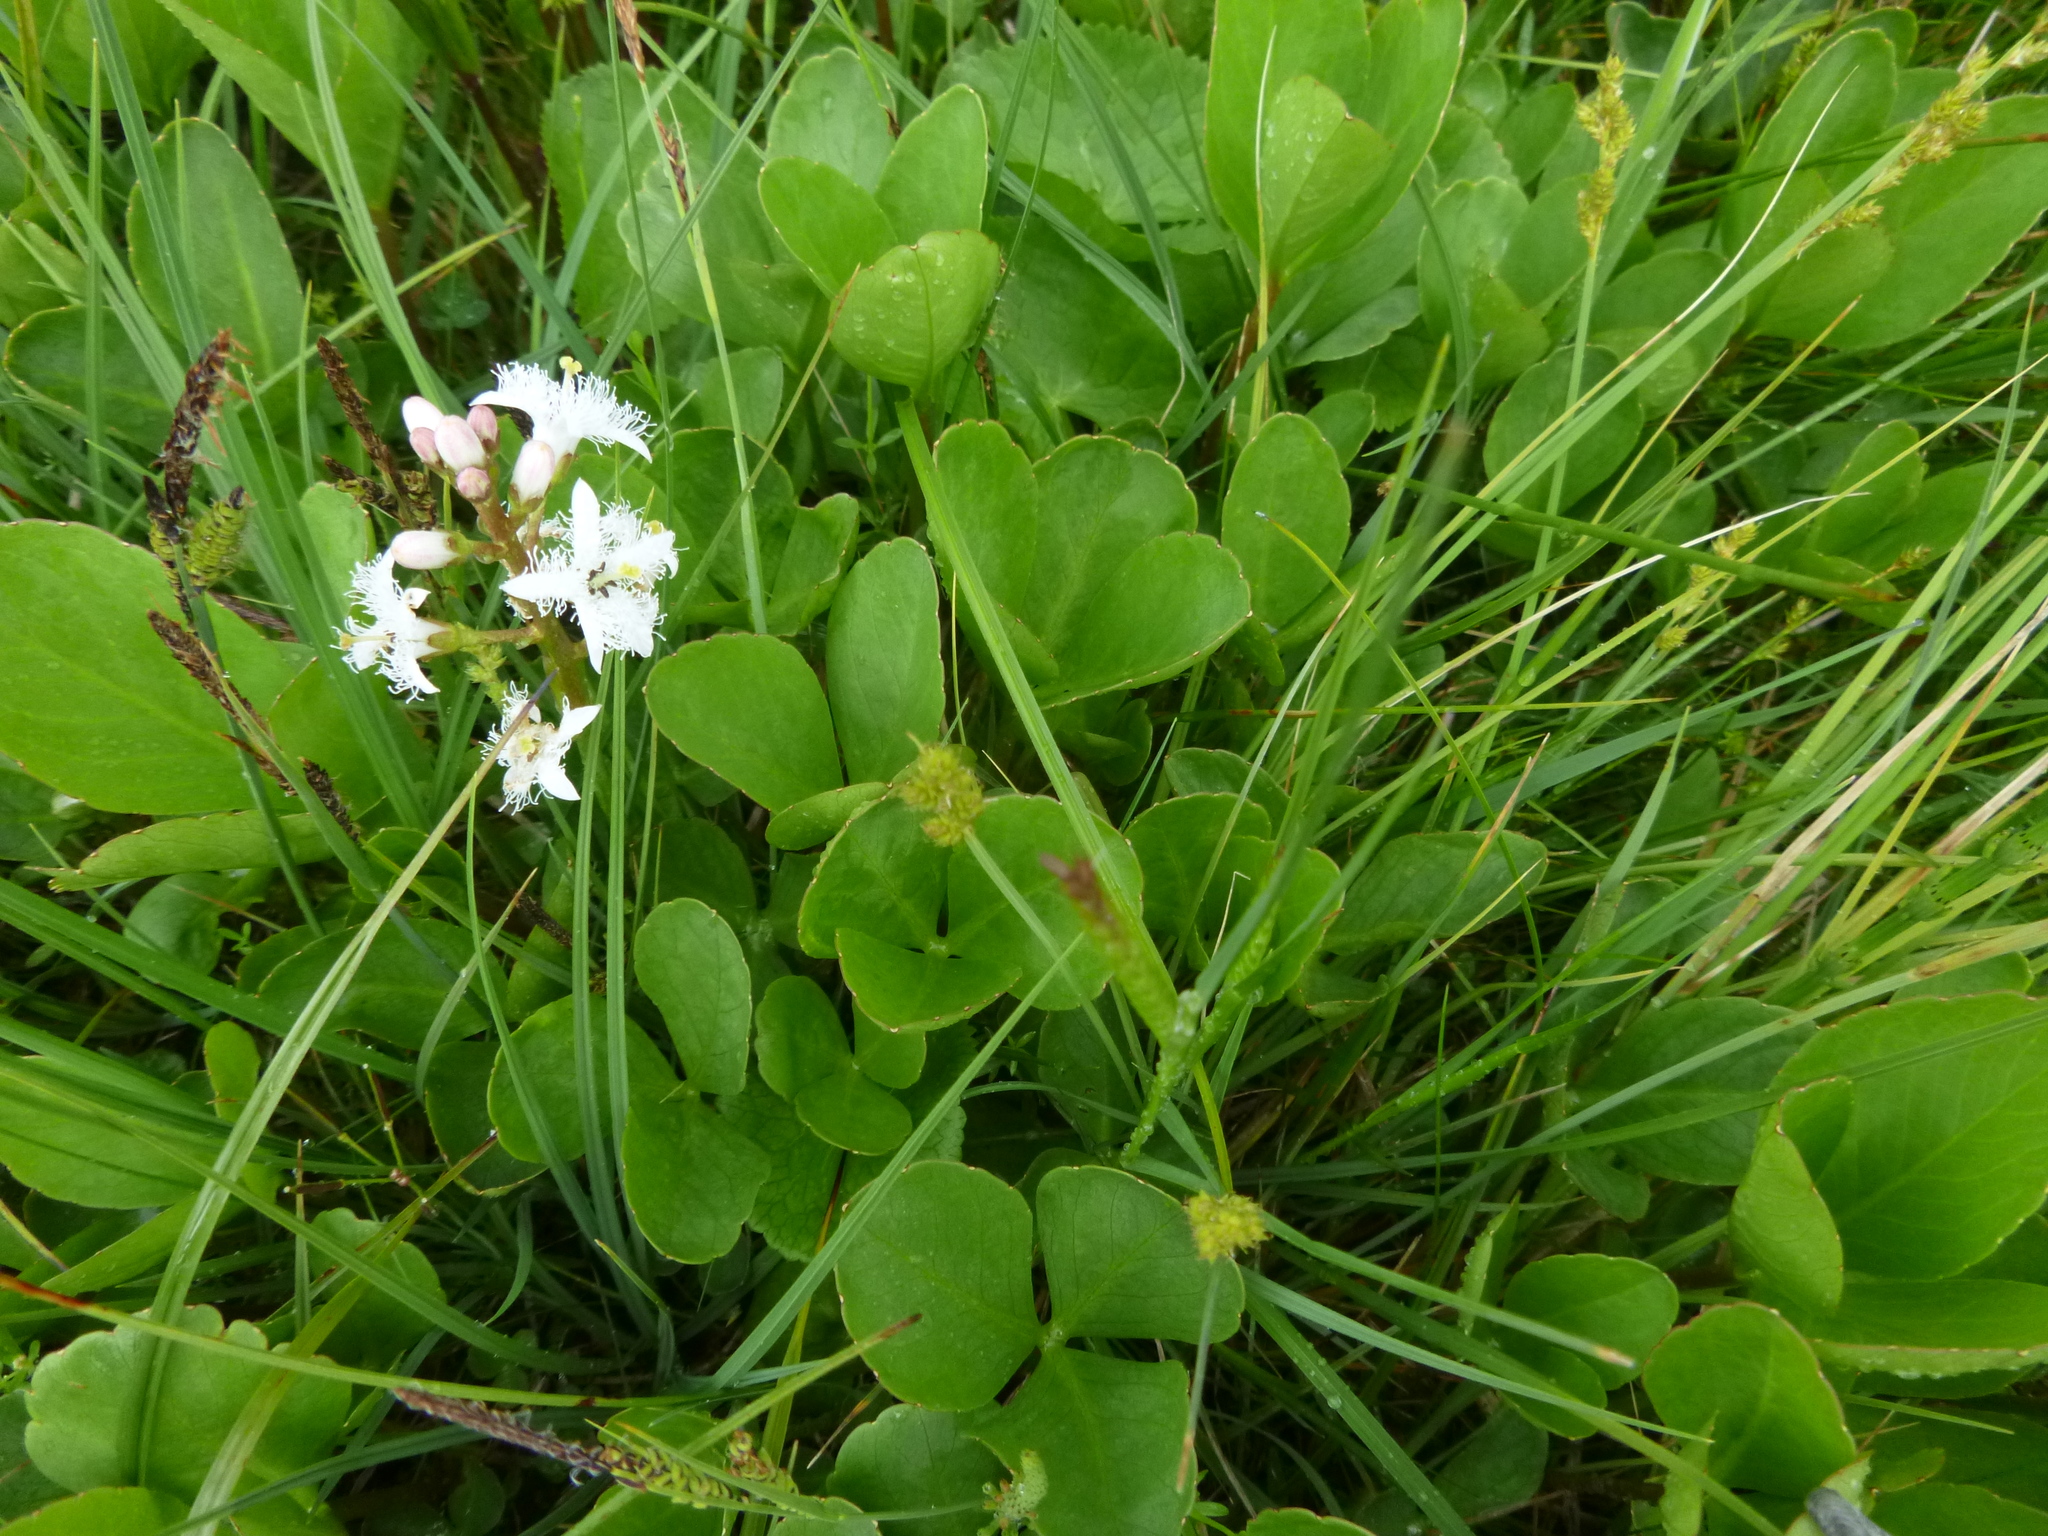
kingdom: Plantae
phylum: Tracheophyta
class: Magnoliopsida
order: Asterales
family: Menyanthaceae
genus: Menyanthes
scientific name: Menyanthes trifoliata
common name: Bogbean
